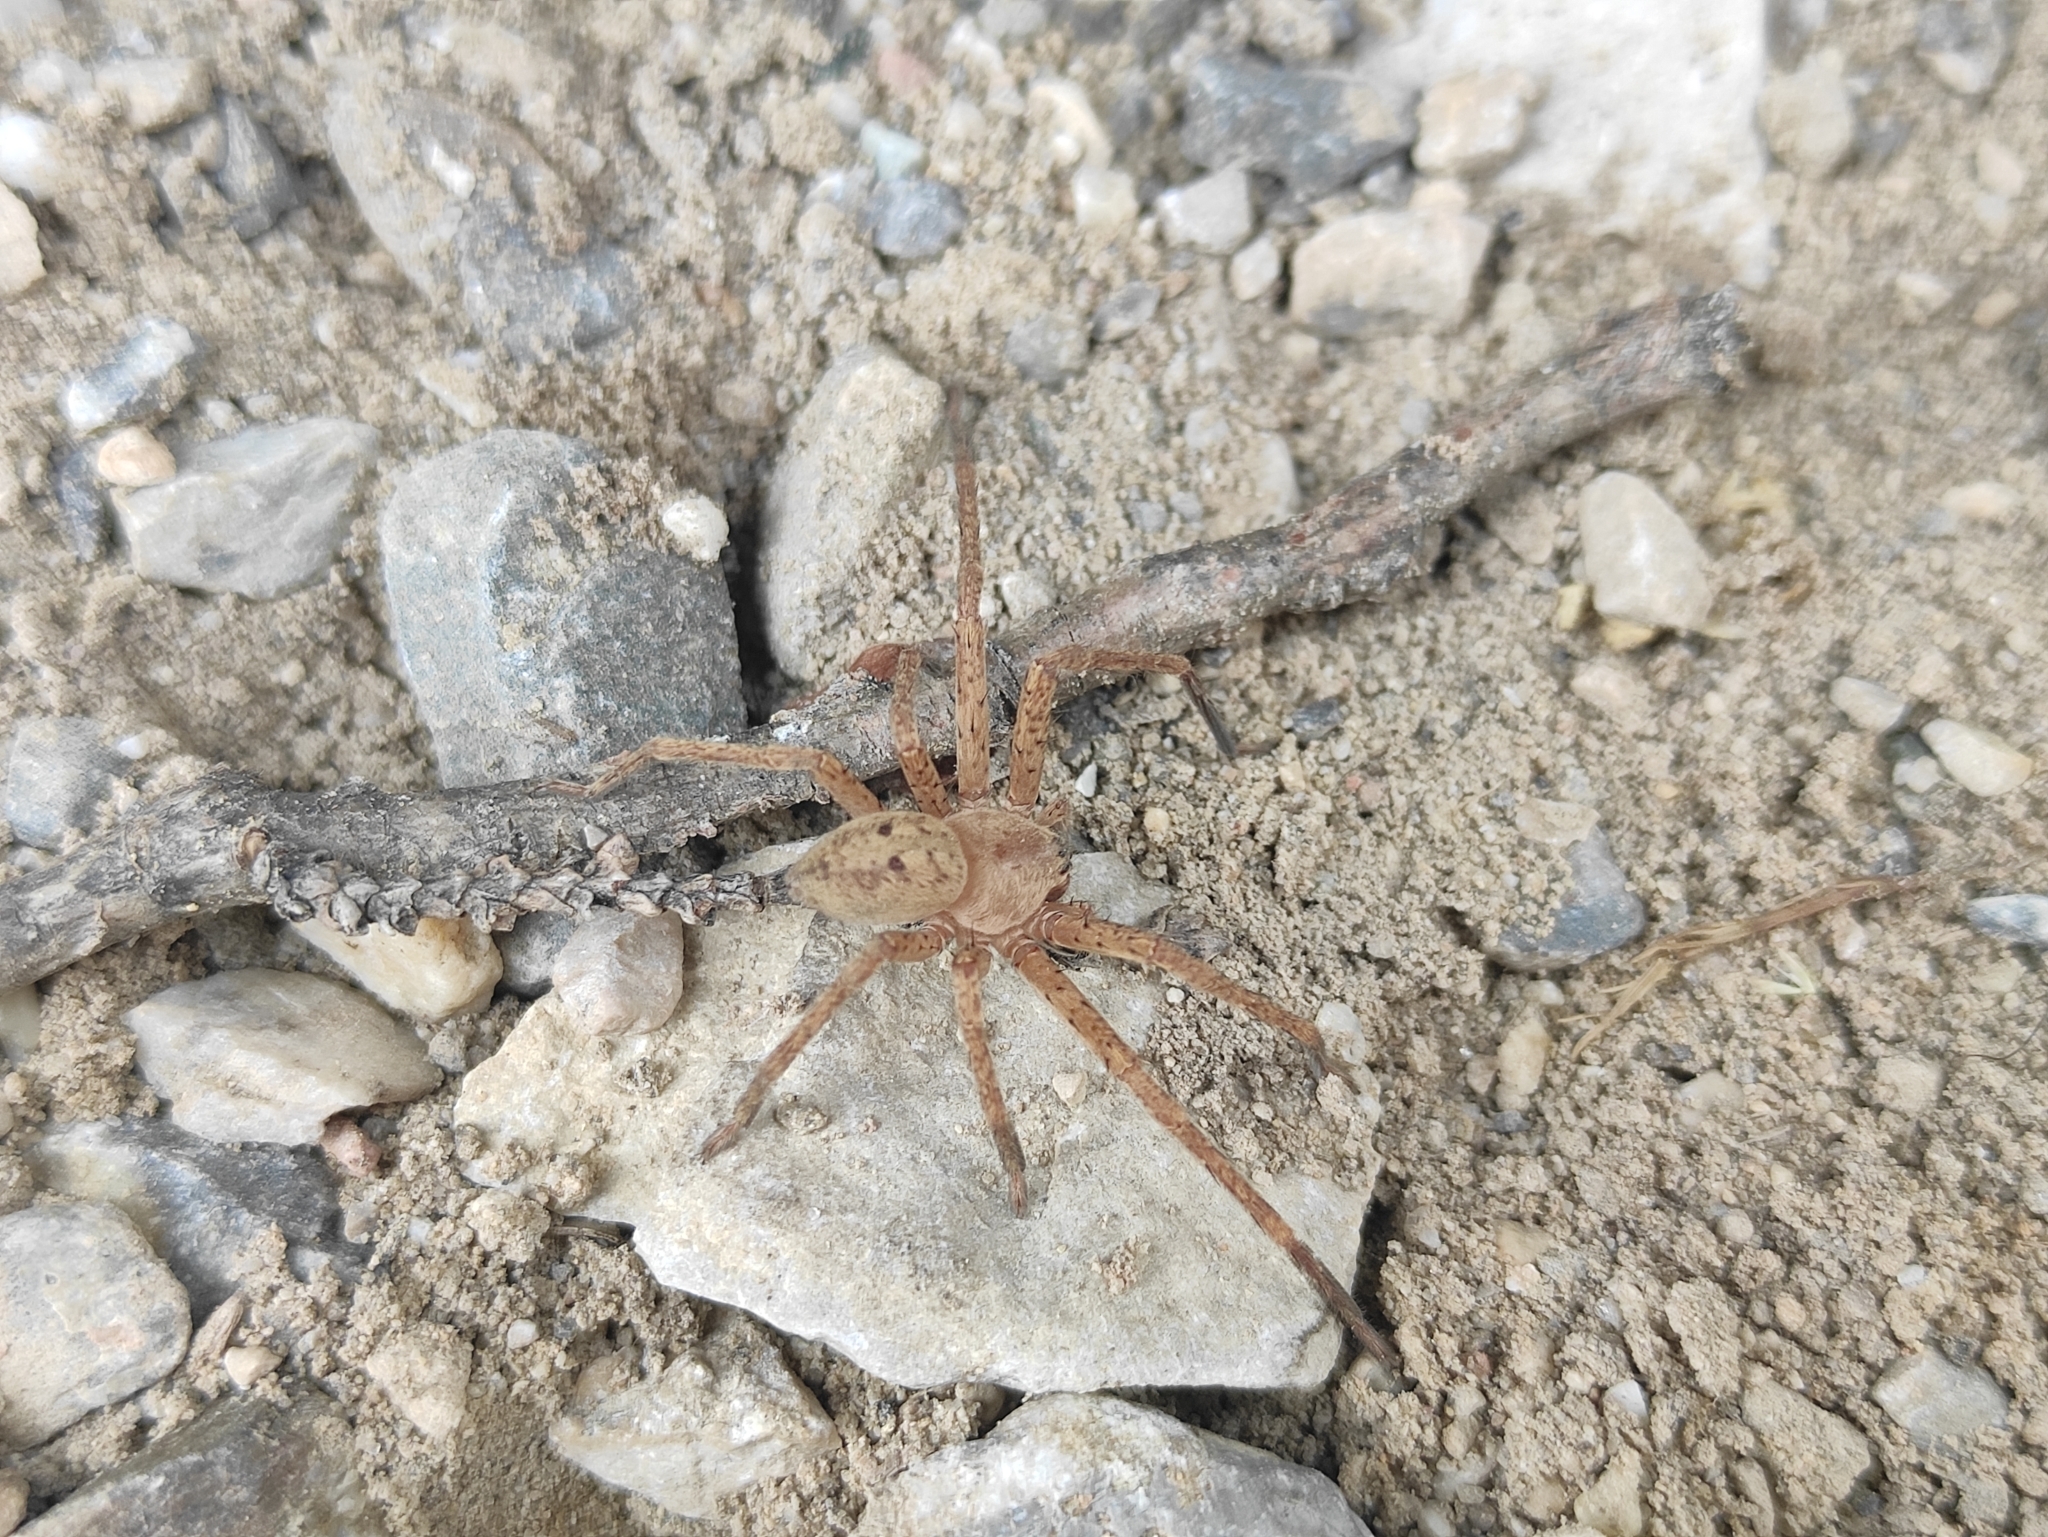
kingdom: Animalia
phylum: Arthropoda
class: Arachnida
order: Araneae
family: Sparassidae
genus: Olios
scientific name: Olios argelasius
